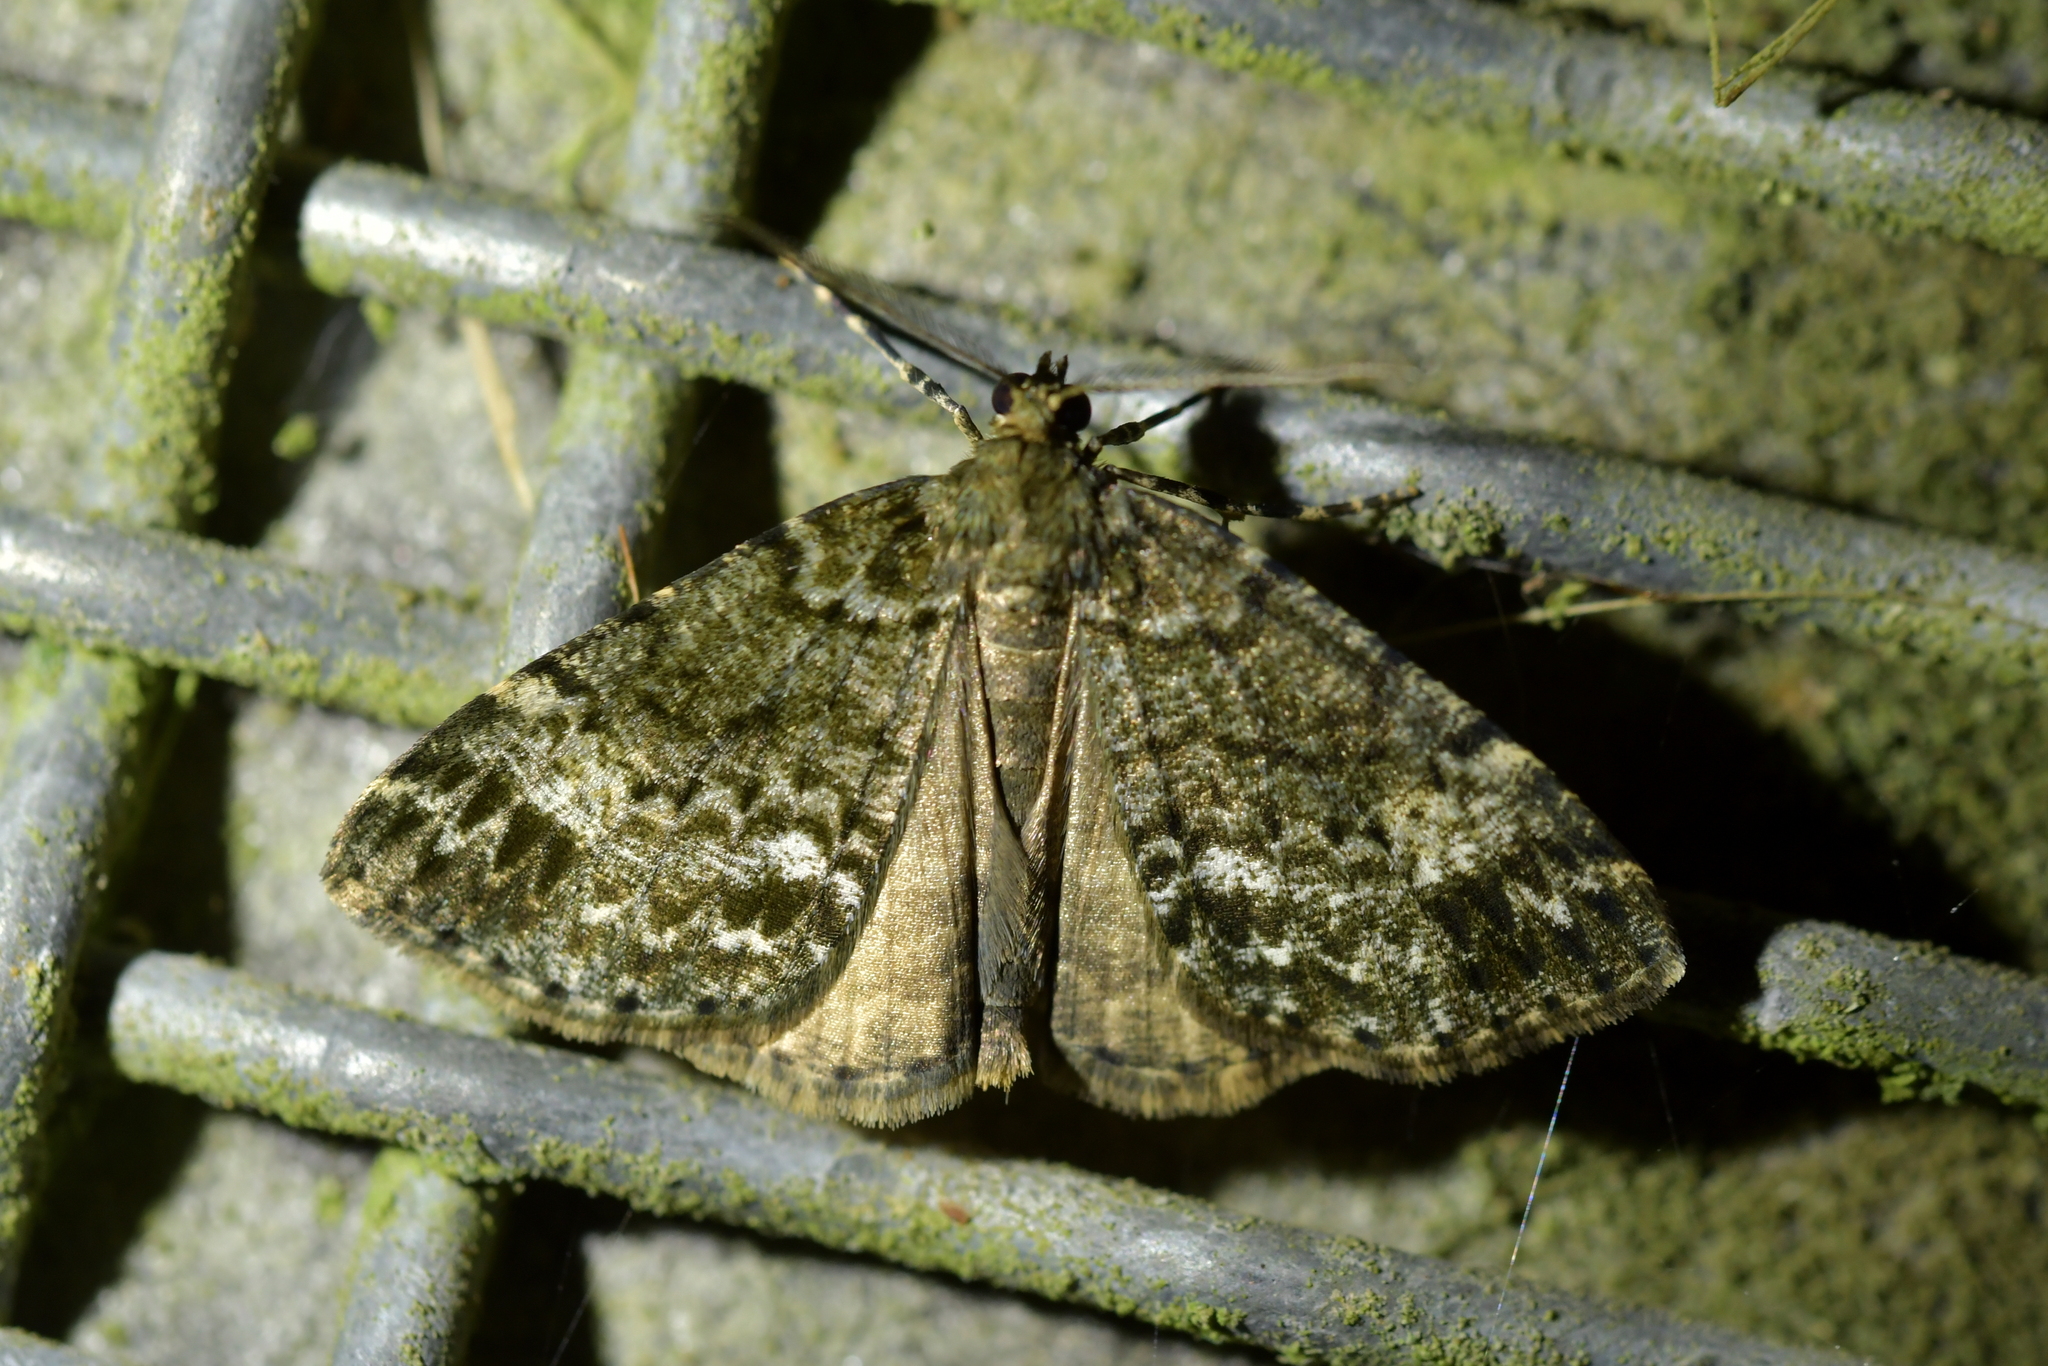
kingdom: Animalia
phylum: Arthropoda
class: Insecta
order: Lepidoptera
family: Geometridae
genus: Pseudocoremia
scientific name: Pseudocoremia indistincta
